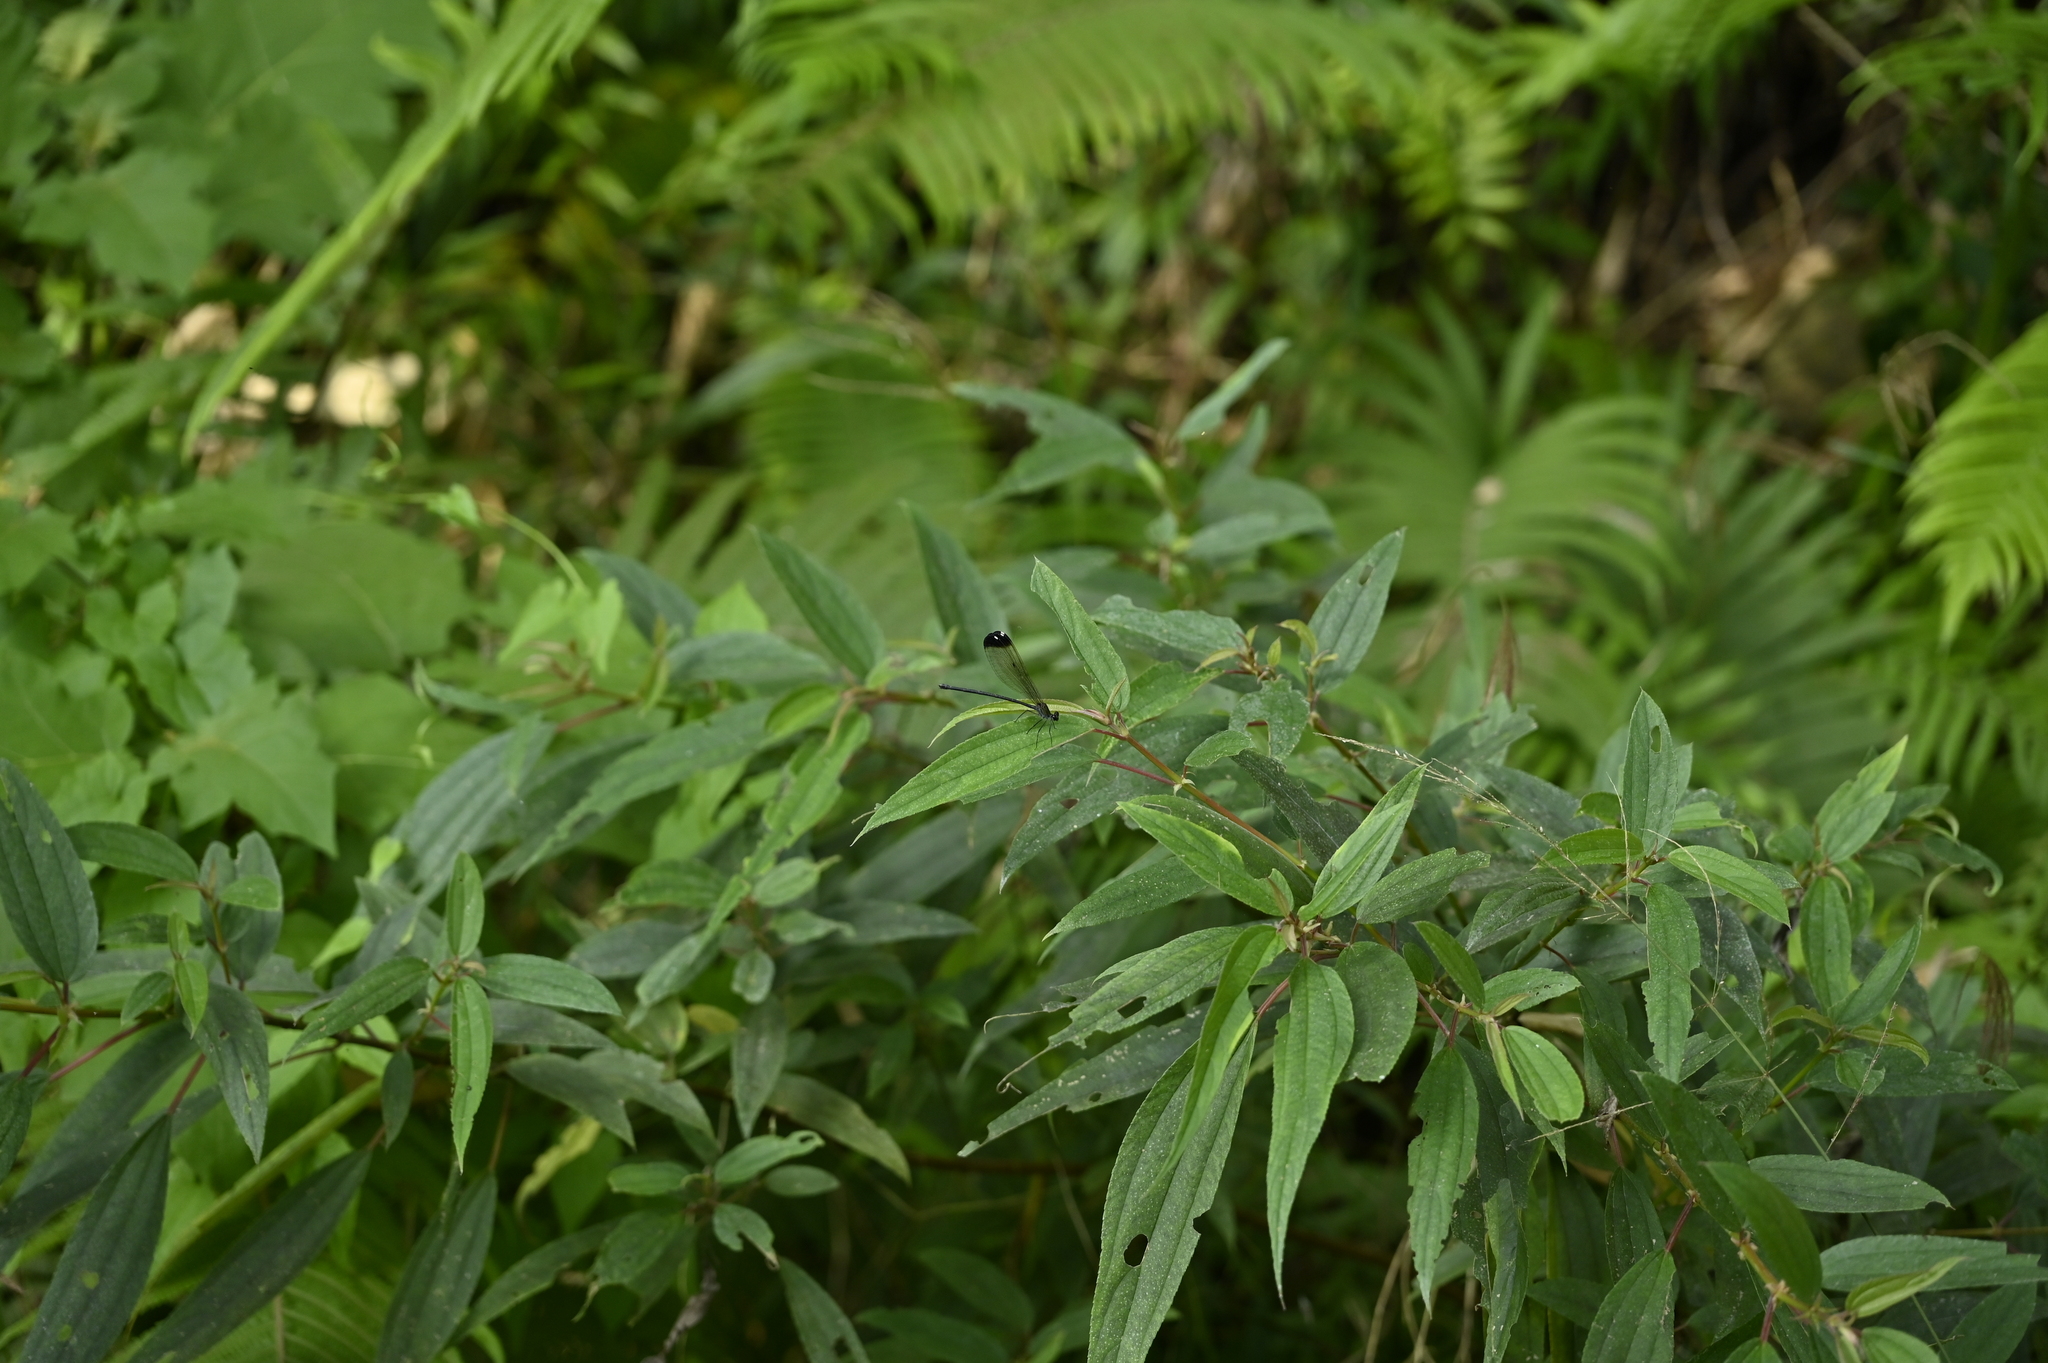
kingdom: Animalia
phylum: Arthropoda
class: Insecta
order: Odonata
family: Calopterygidae
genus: Psolodesmus
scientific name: Psolodesmus mandarinus
